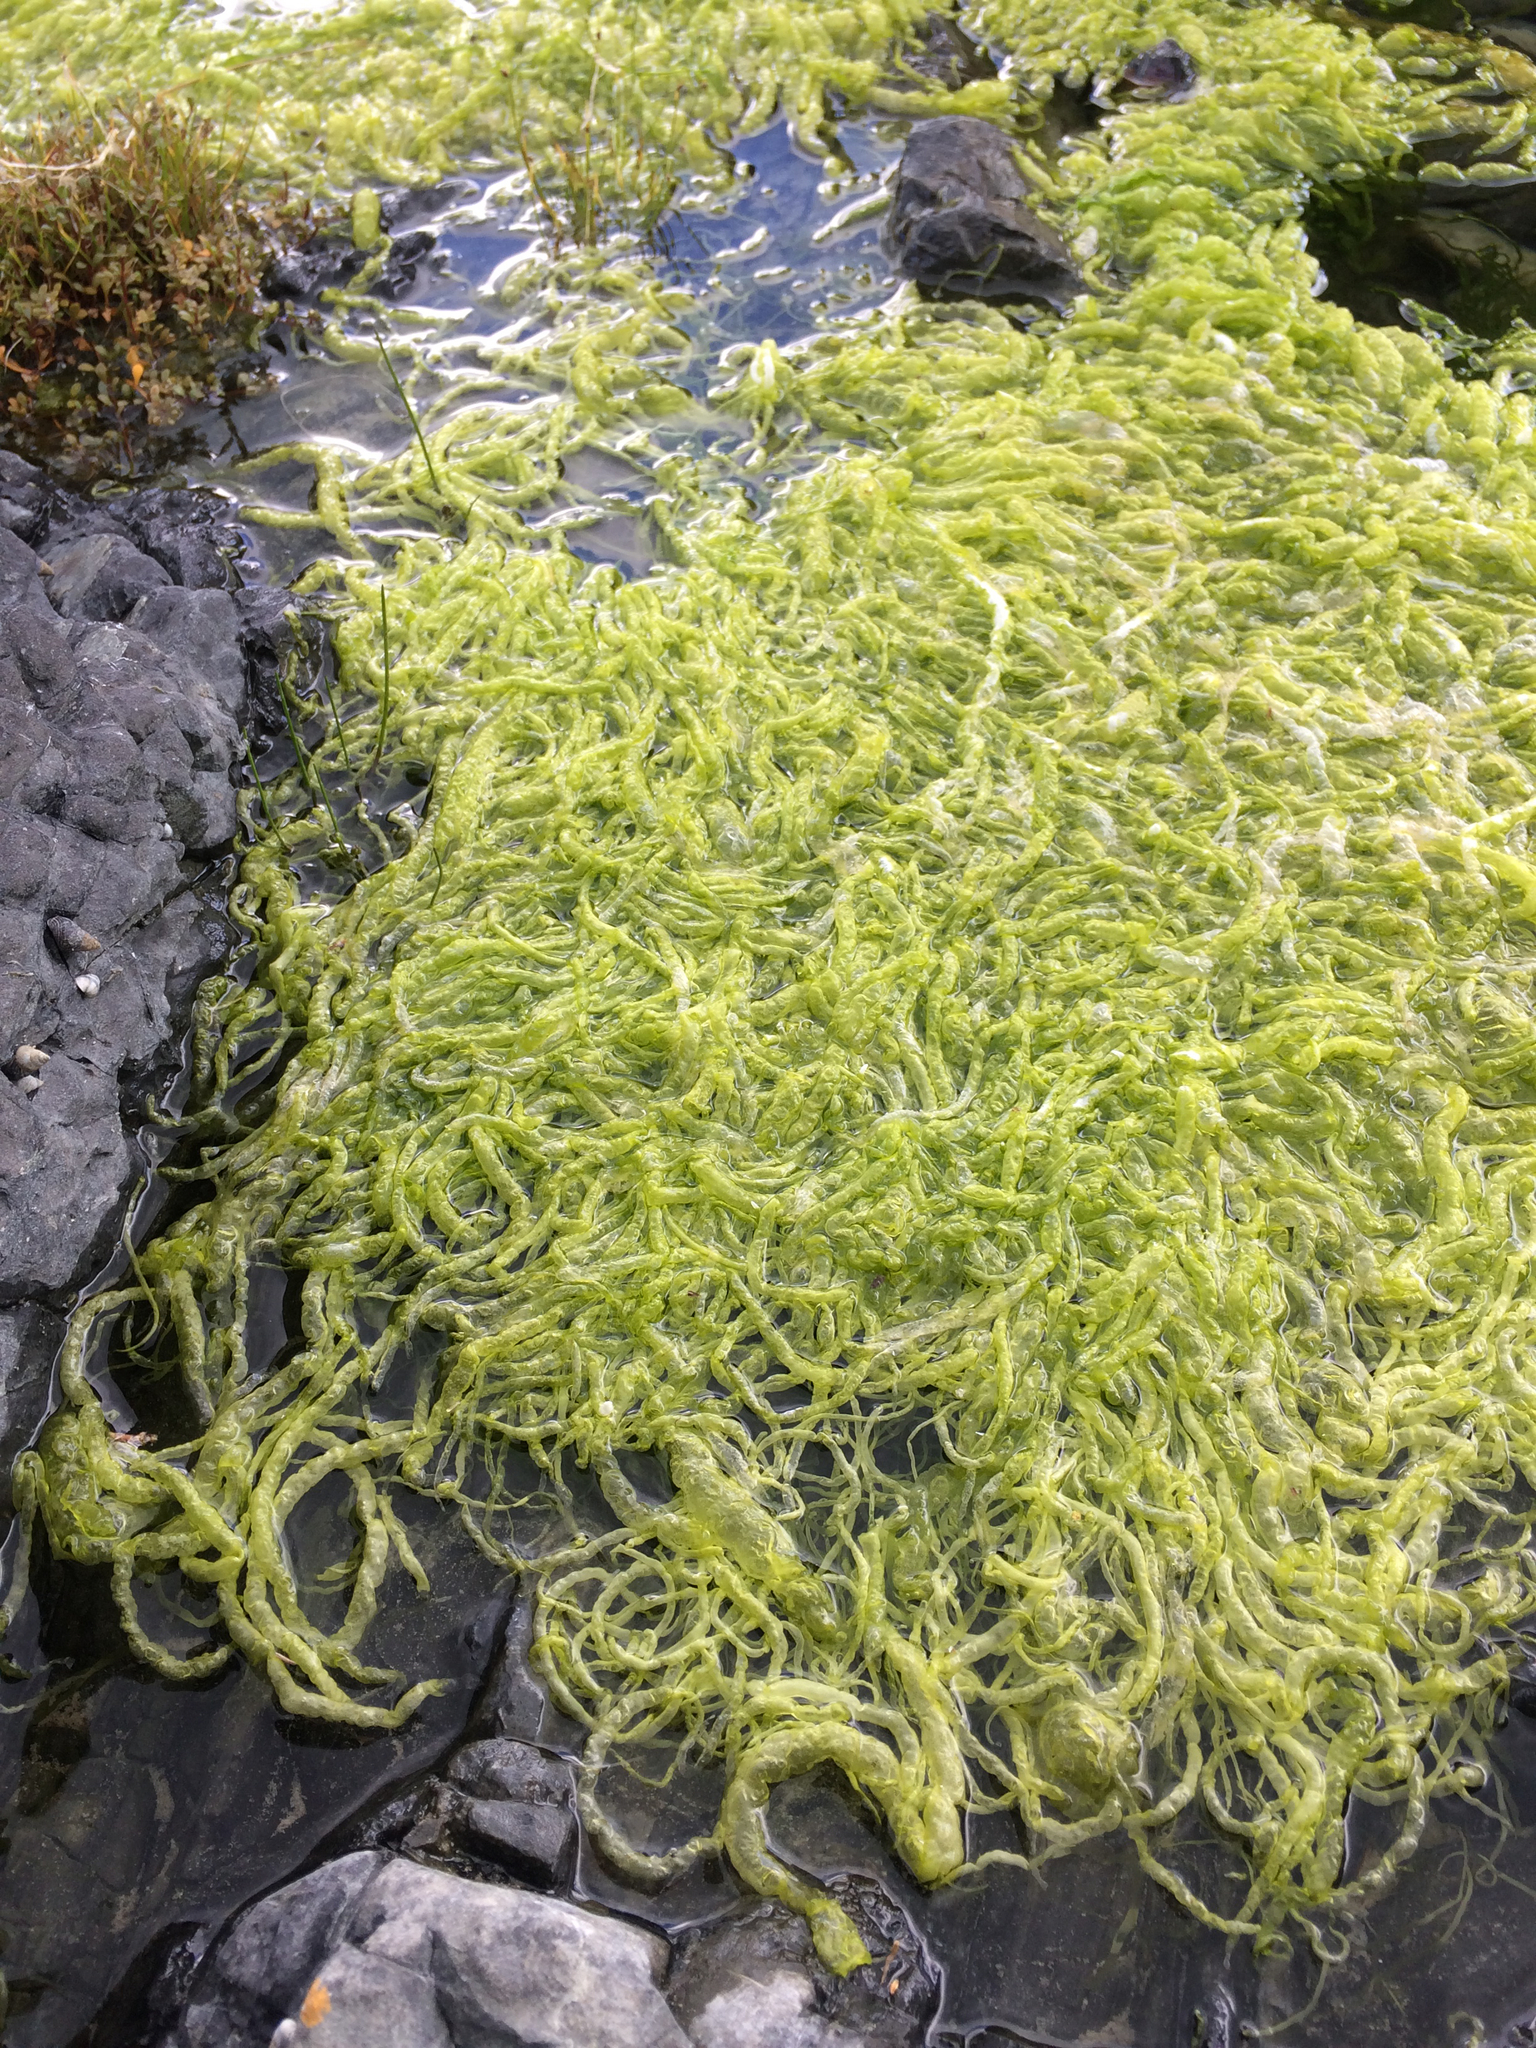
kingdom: Plantae
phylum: Chlorophyta
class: Ulvophyceae
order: Ulvales
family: Ulvaceae
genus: Ulva
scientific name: Ulva intestinalis
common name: Gut weed
